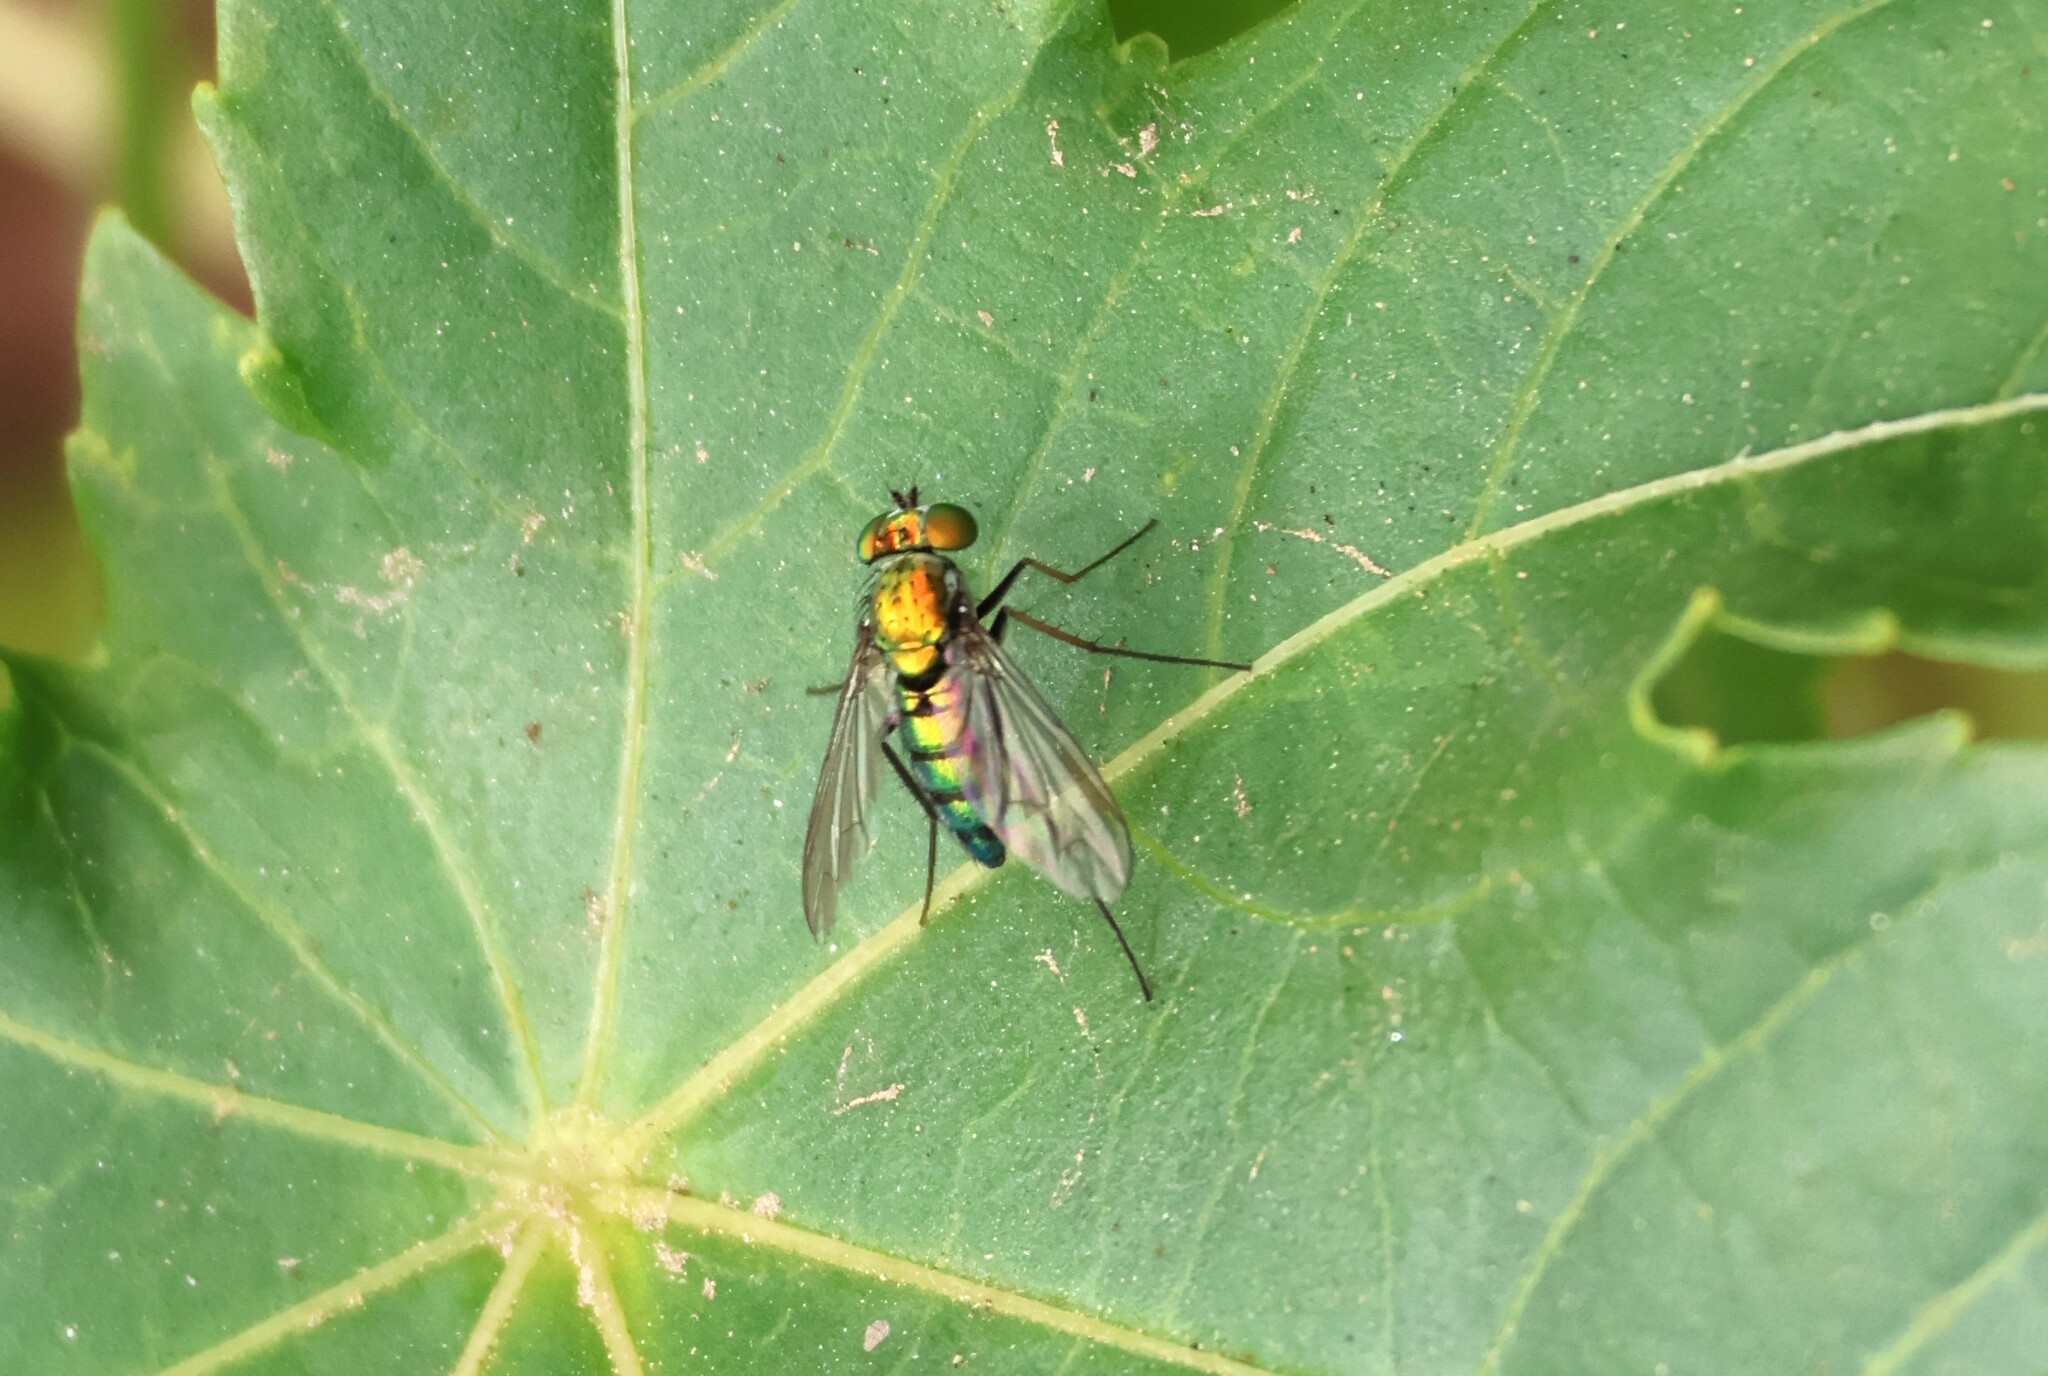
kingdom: Animalia
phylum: Arthropoda
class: Insecta
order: Diptera
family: Dolichopodidae
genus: Condylostylus
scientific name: Condylostylus longicornis
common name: Long-legged fly
